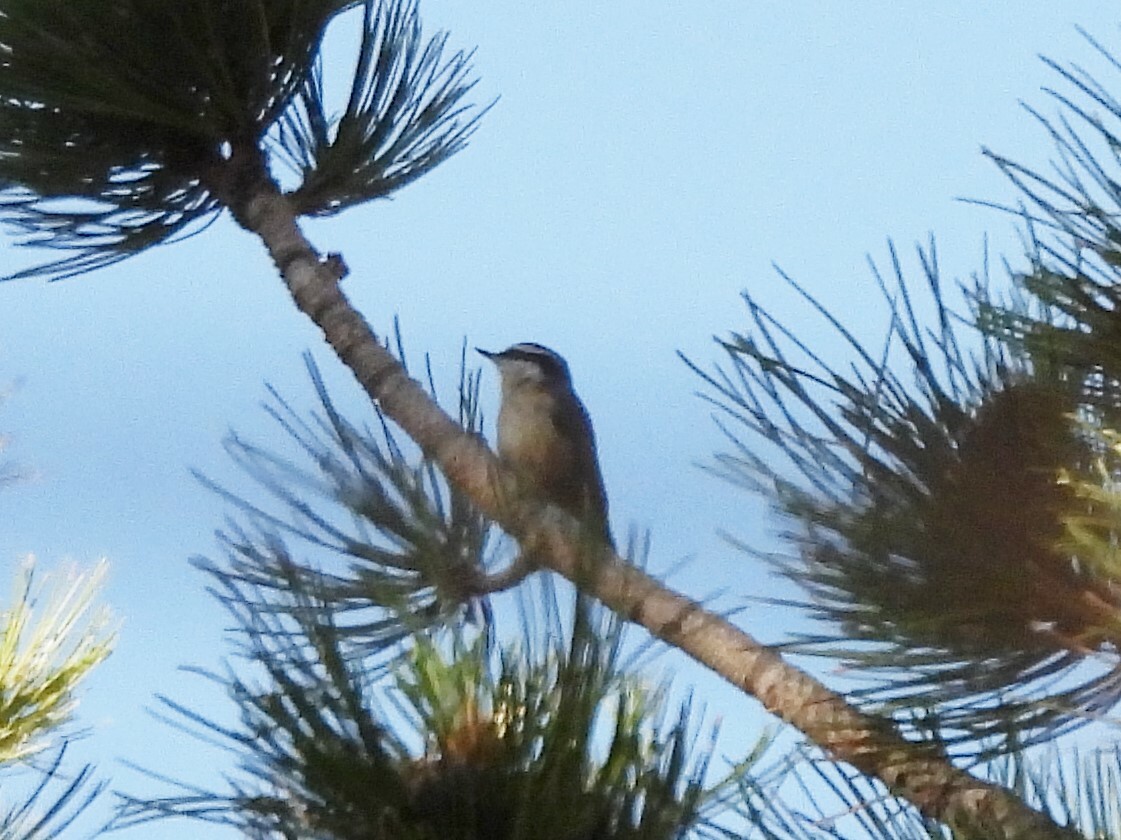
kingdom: Animalia
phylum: Chordata
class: Aves
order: Passeriformes
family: Sittidae
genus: Sitta
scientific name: Sitta canadensis
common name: Red-breasted nuthatch
